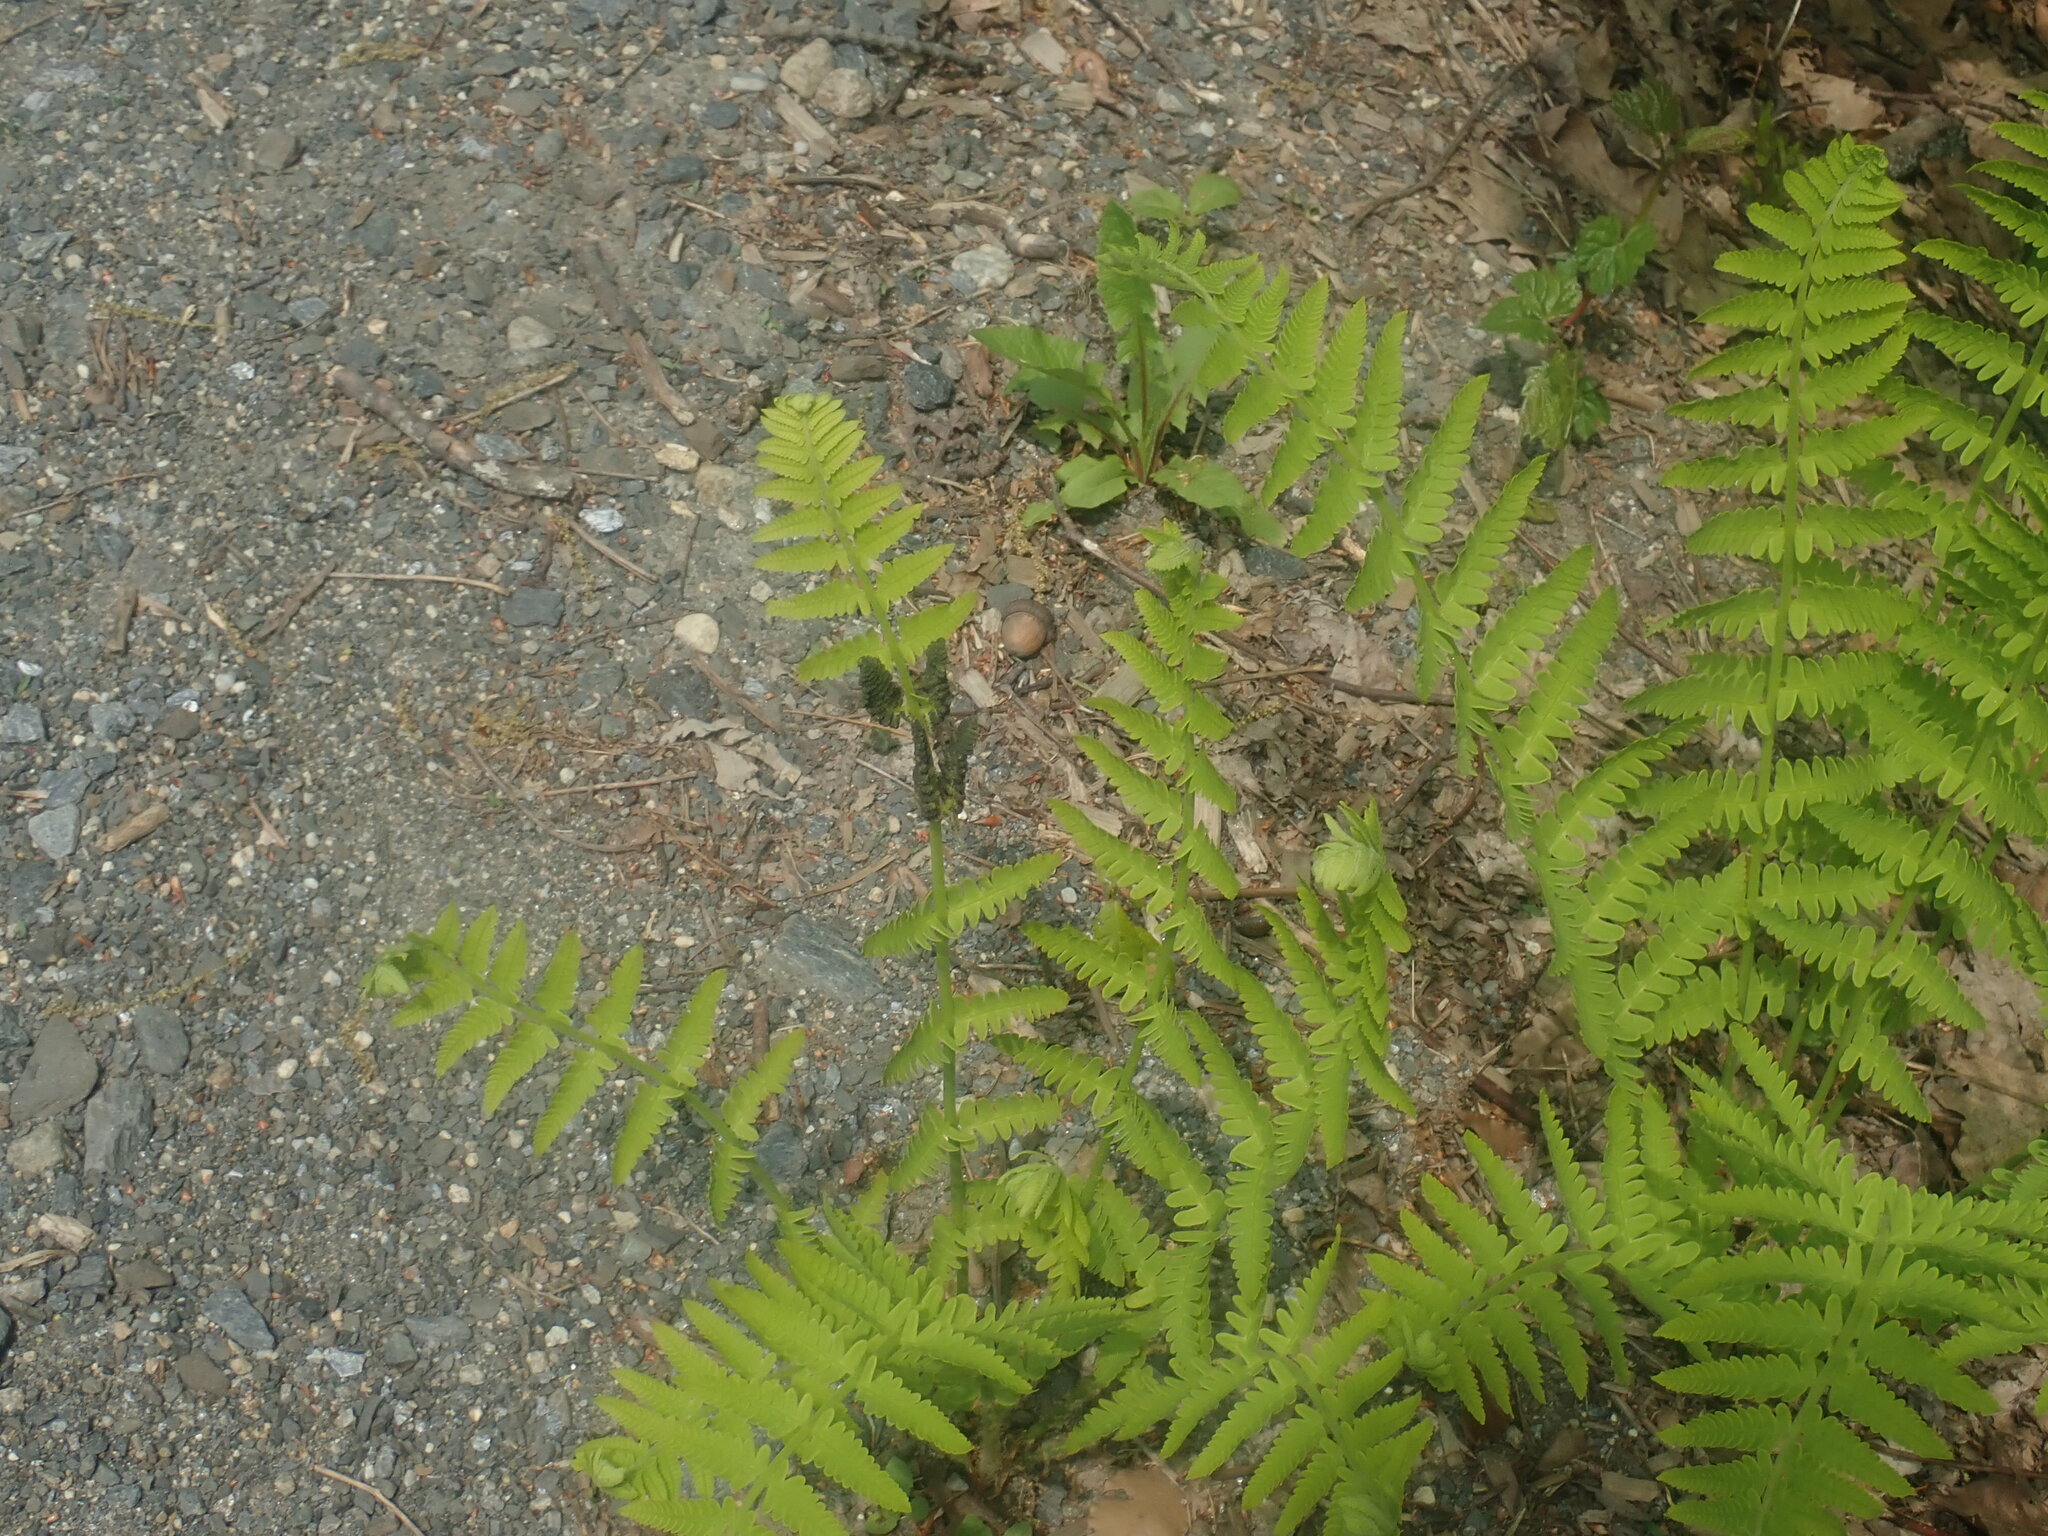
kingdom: Plantae
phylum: Tracheophyta
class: Polypodiopsida
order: Osmundales
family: Osmundaceae
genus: Claytosmunda
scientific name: Claytosmunda claytoniana
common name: Clayton's fern
